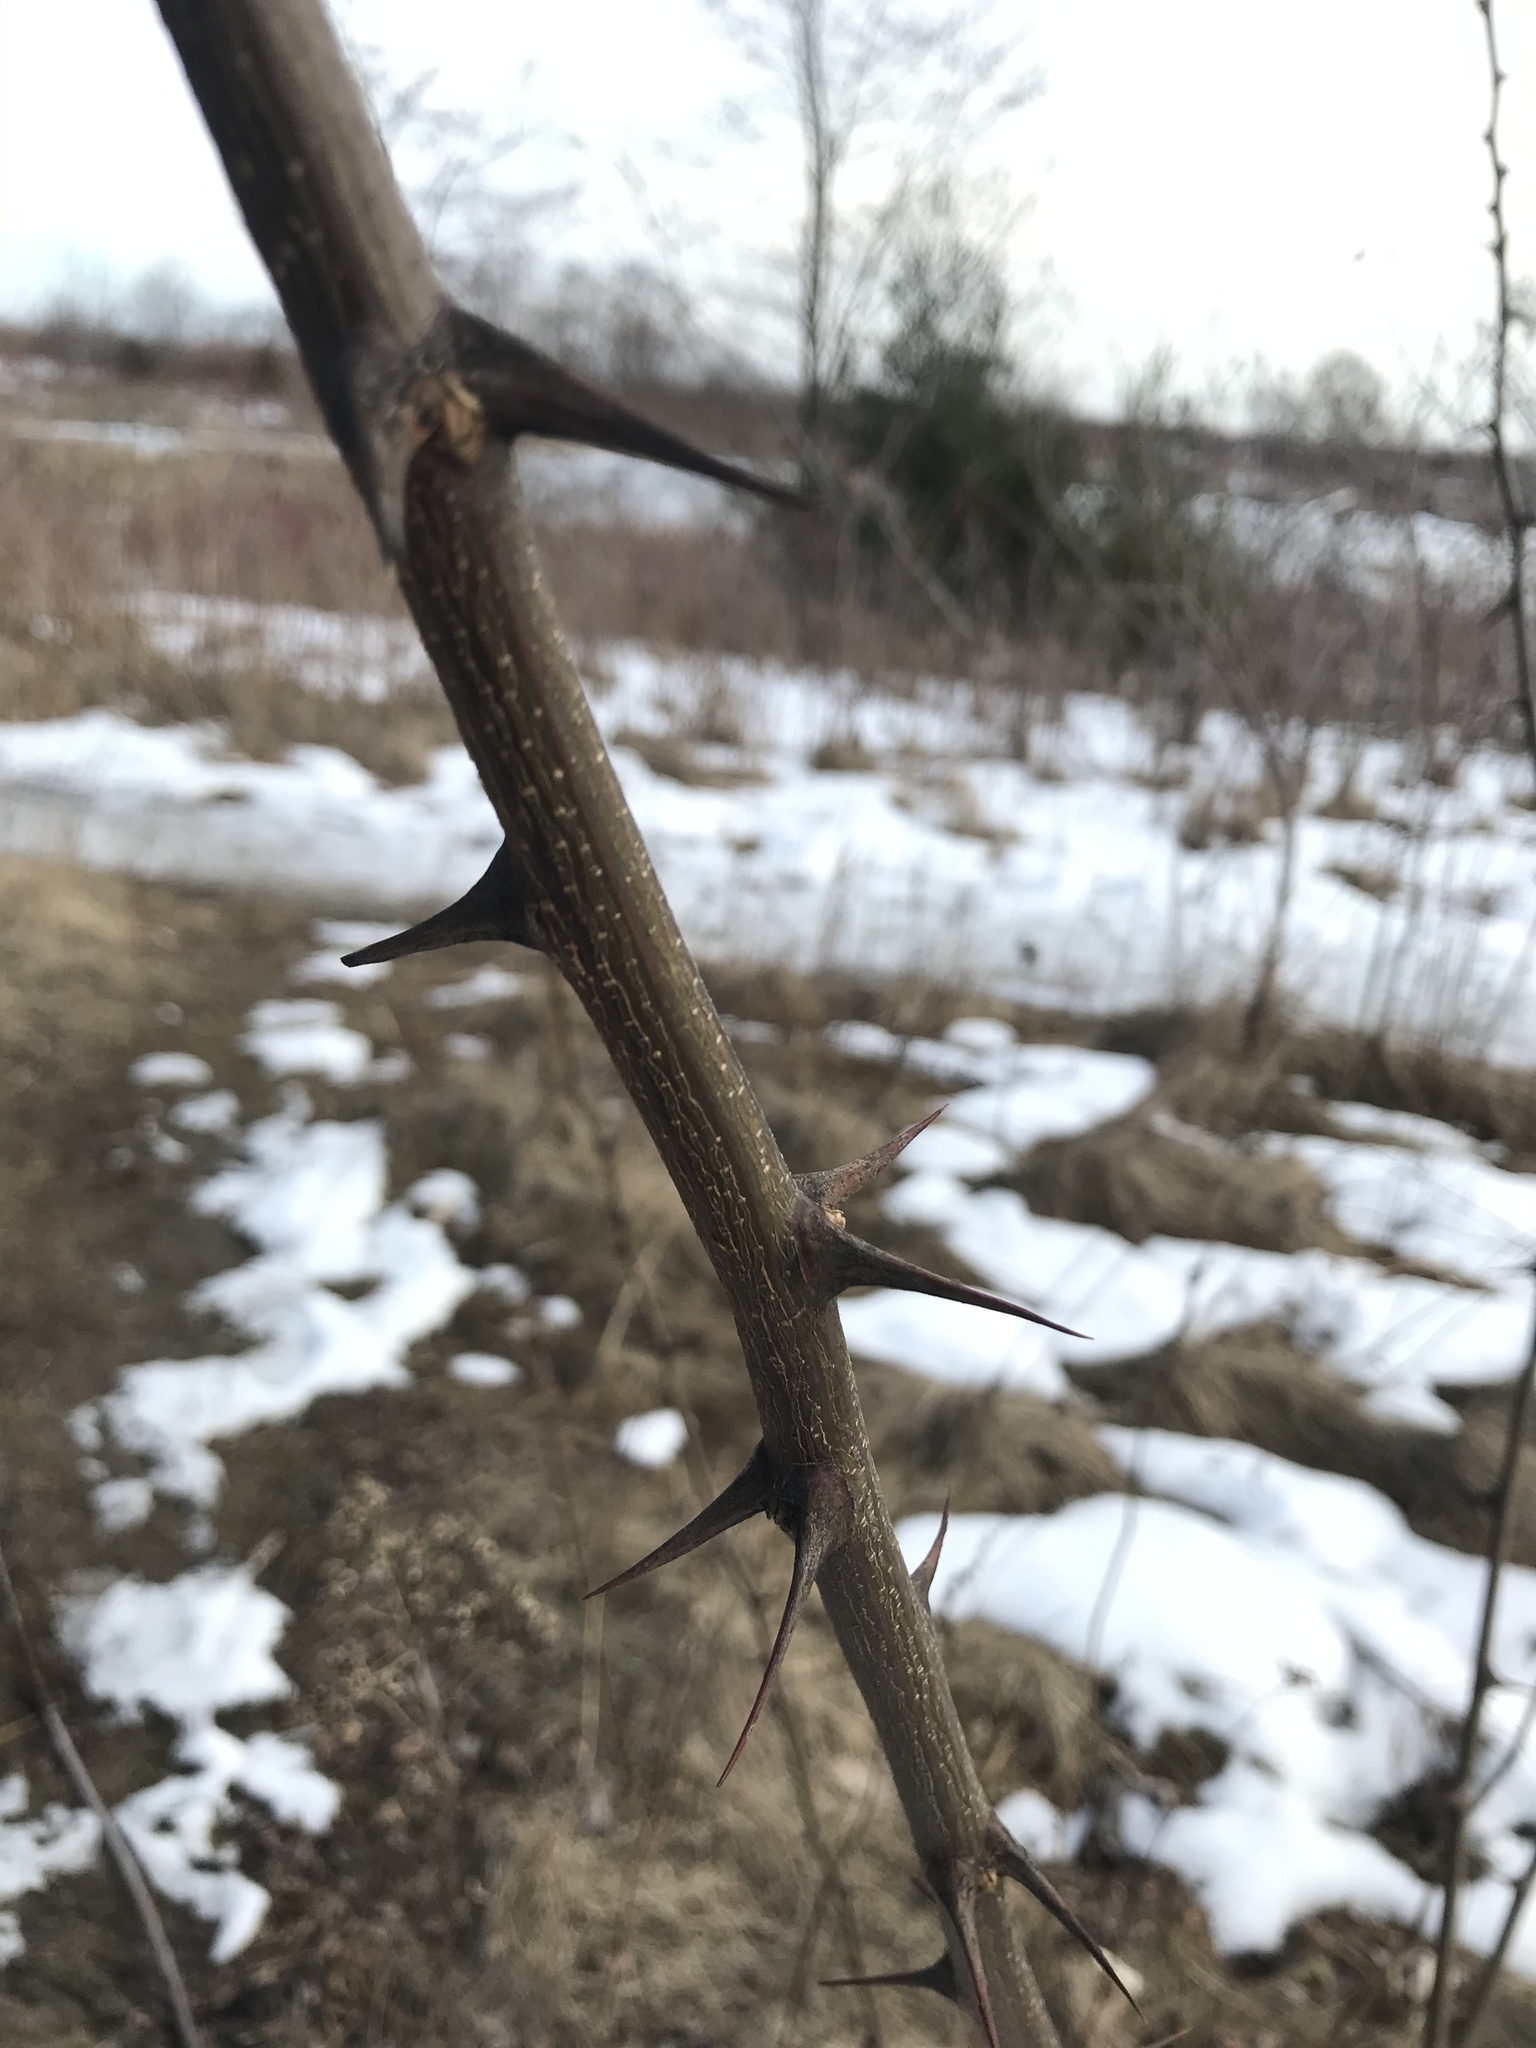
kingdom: Plantae
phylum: Tracheophyta
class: Magnoliopsida
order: Fabales
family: Fabaceae
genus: Robinia
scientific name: Robinia pseudoacacia
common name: Black locust
